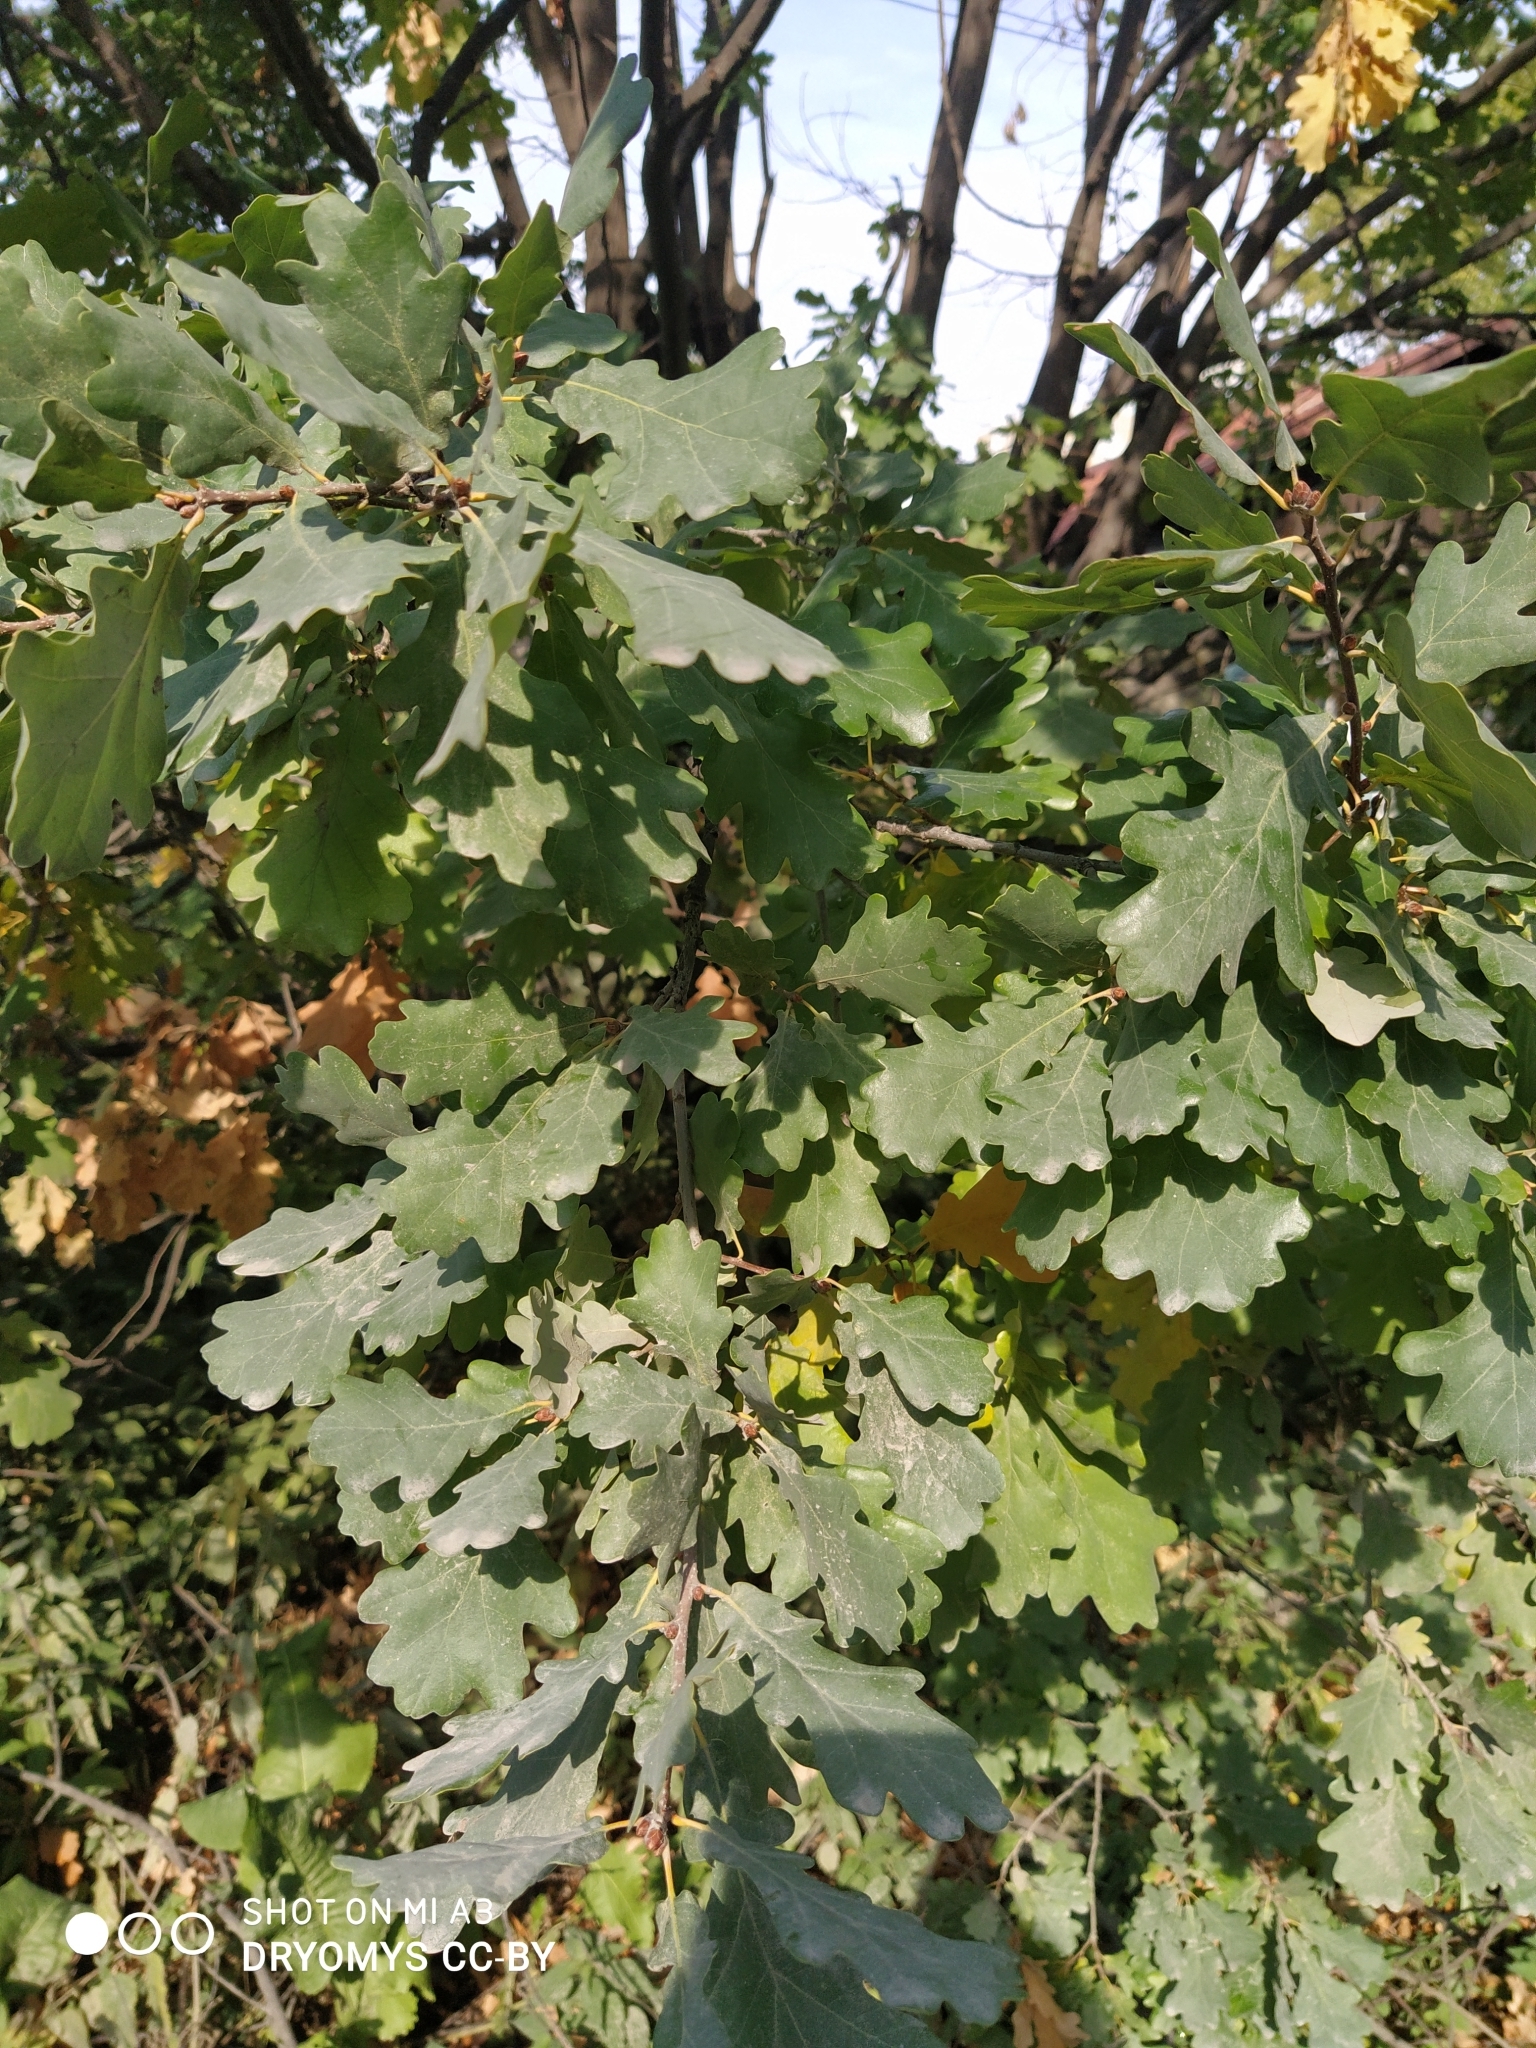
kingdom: Plantae
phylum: Tracheophyta
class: Magnoliopsida
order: Fagales
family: Fagaceae
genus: Quercus
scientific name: Quercus robur
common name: Pedunculate oak
